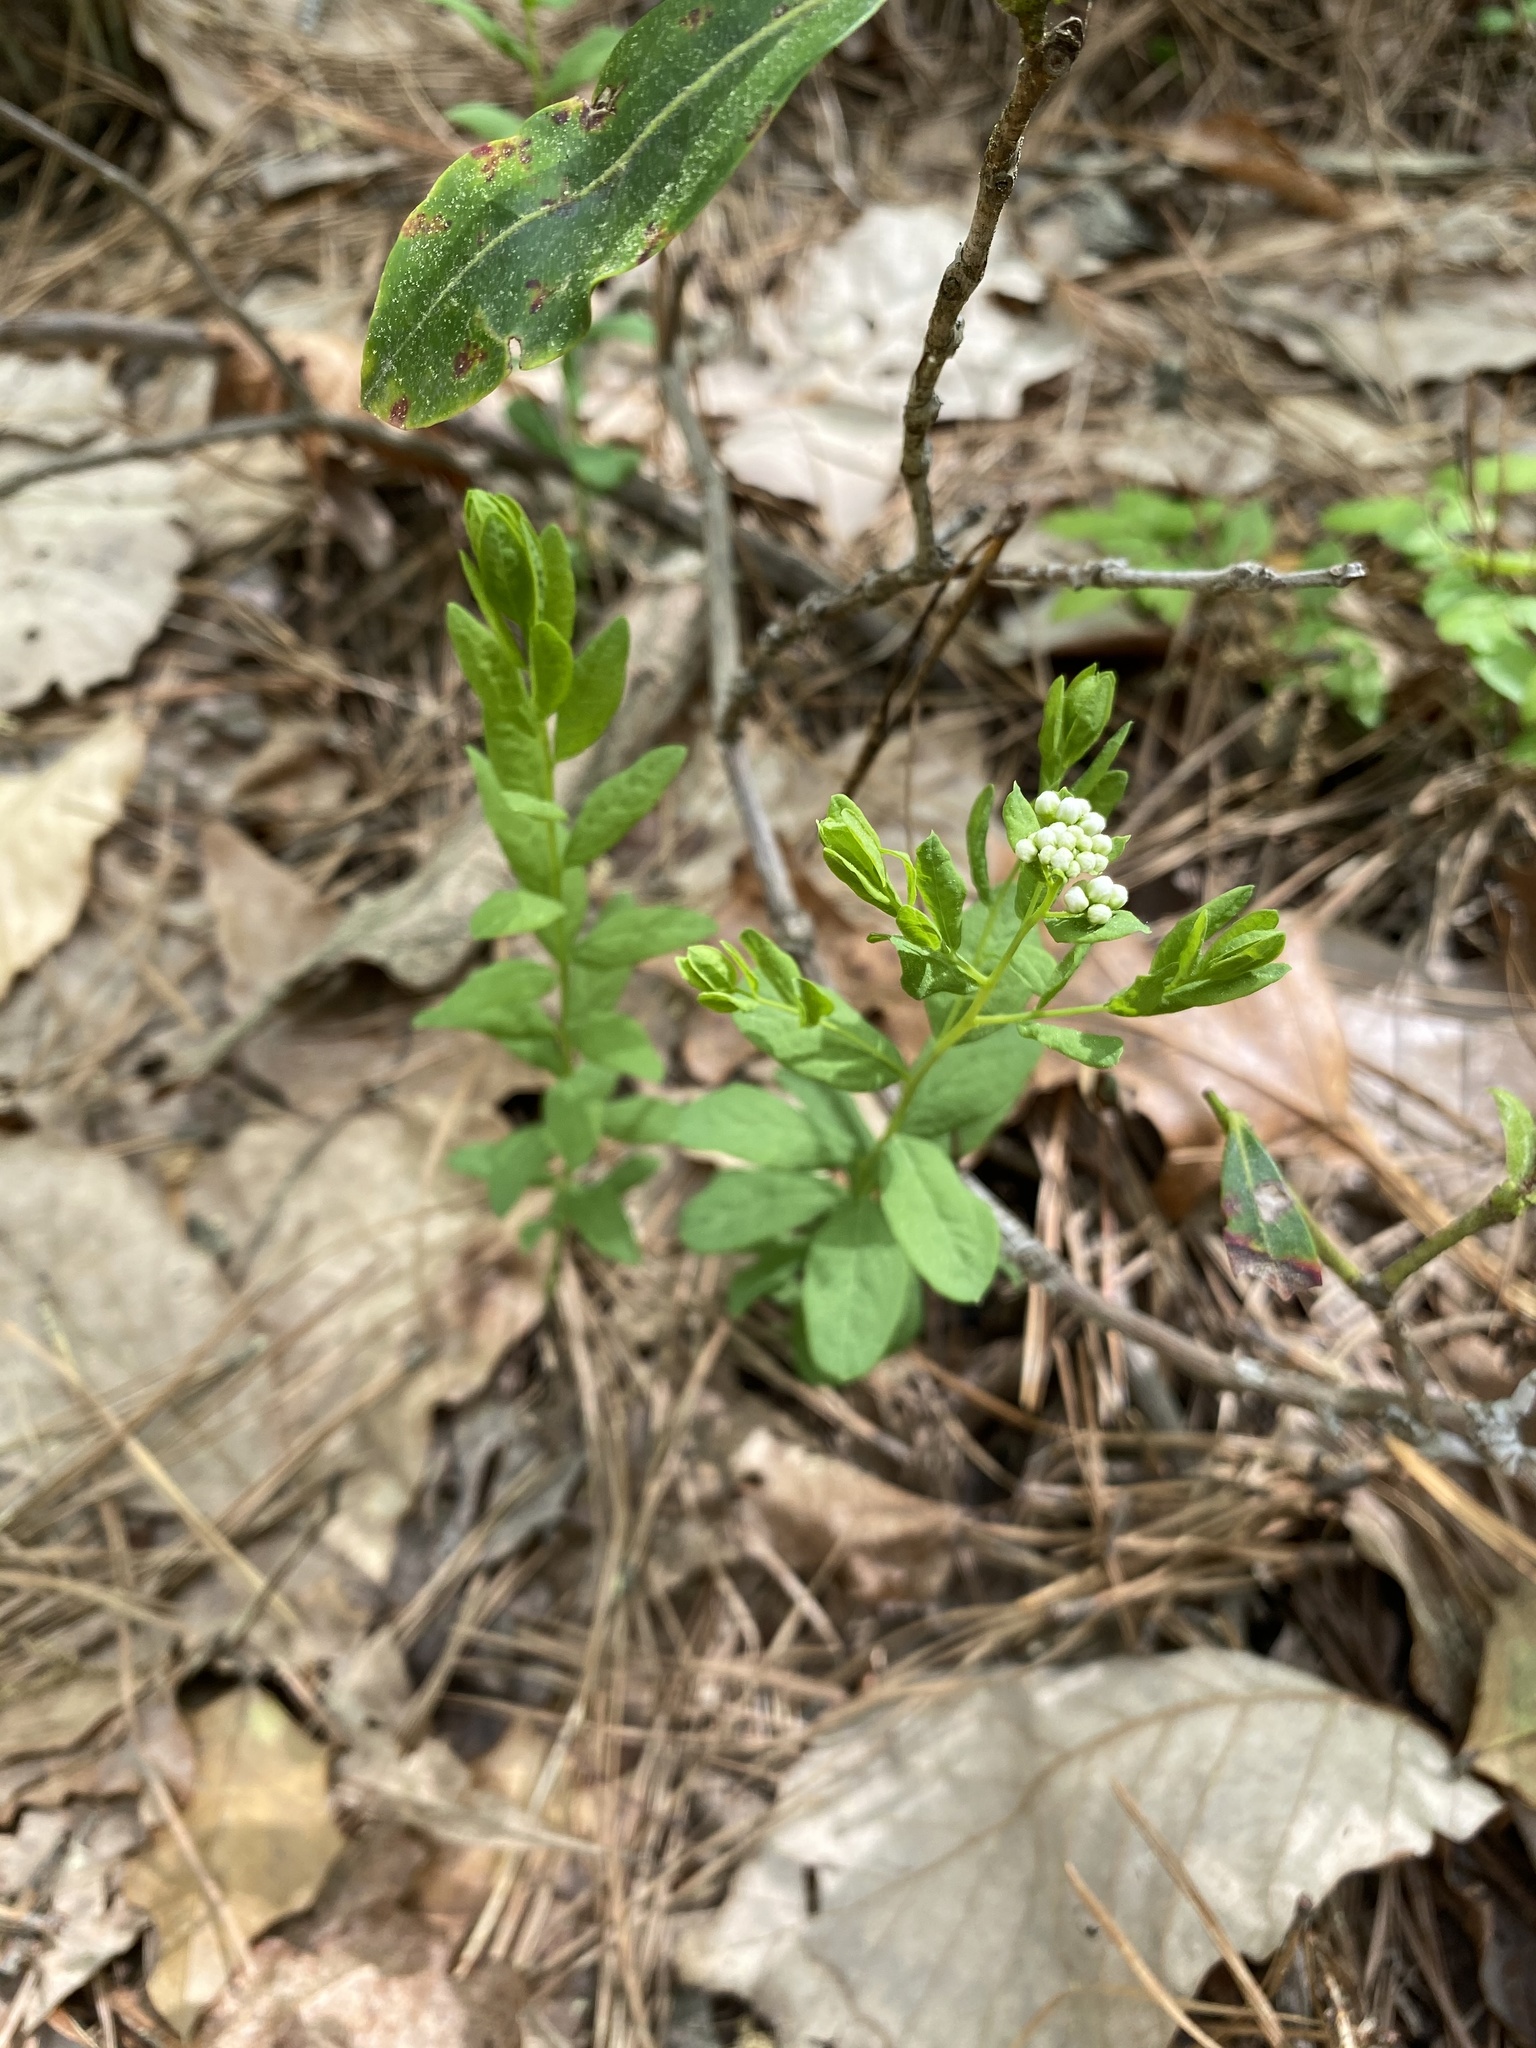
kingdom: Plantae
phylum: Tracheophyta
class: Magnoliopsida
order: Santalales
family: Comandraceae
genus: Comandra
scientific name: Comandra umbellata
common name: Bastard toadflax
